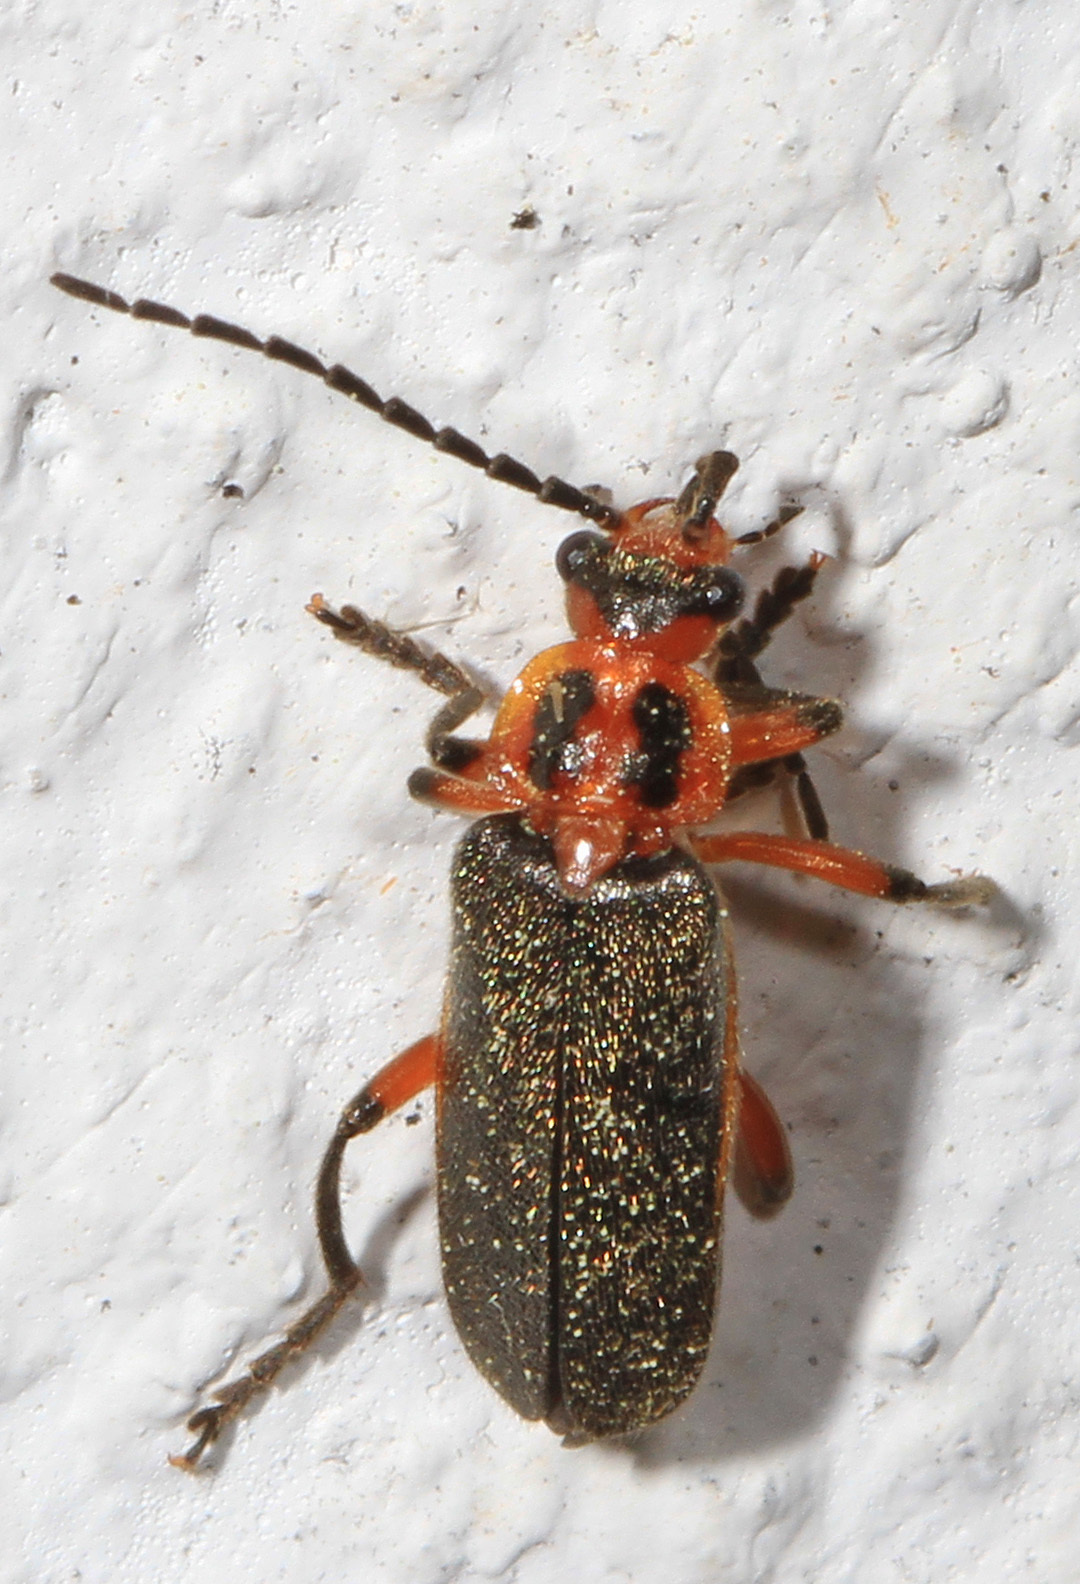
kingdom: Animalia
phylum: Arthropoda
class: Insecta
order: Coleoptera
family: Cantharidae
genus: Atalantycha
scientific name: Atalantycha bilineata
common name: Two-lined leatherwing
